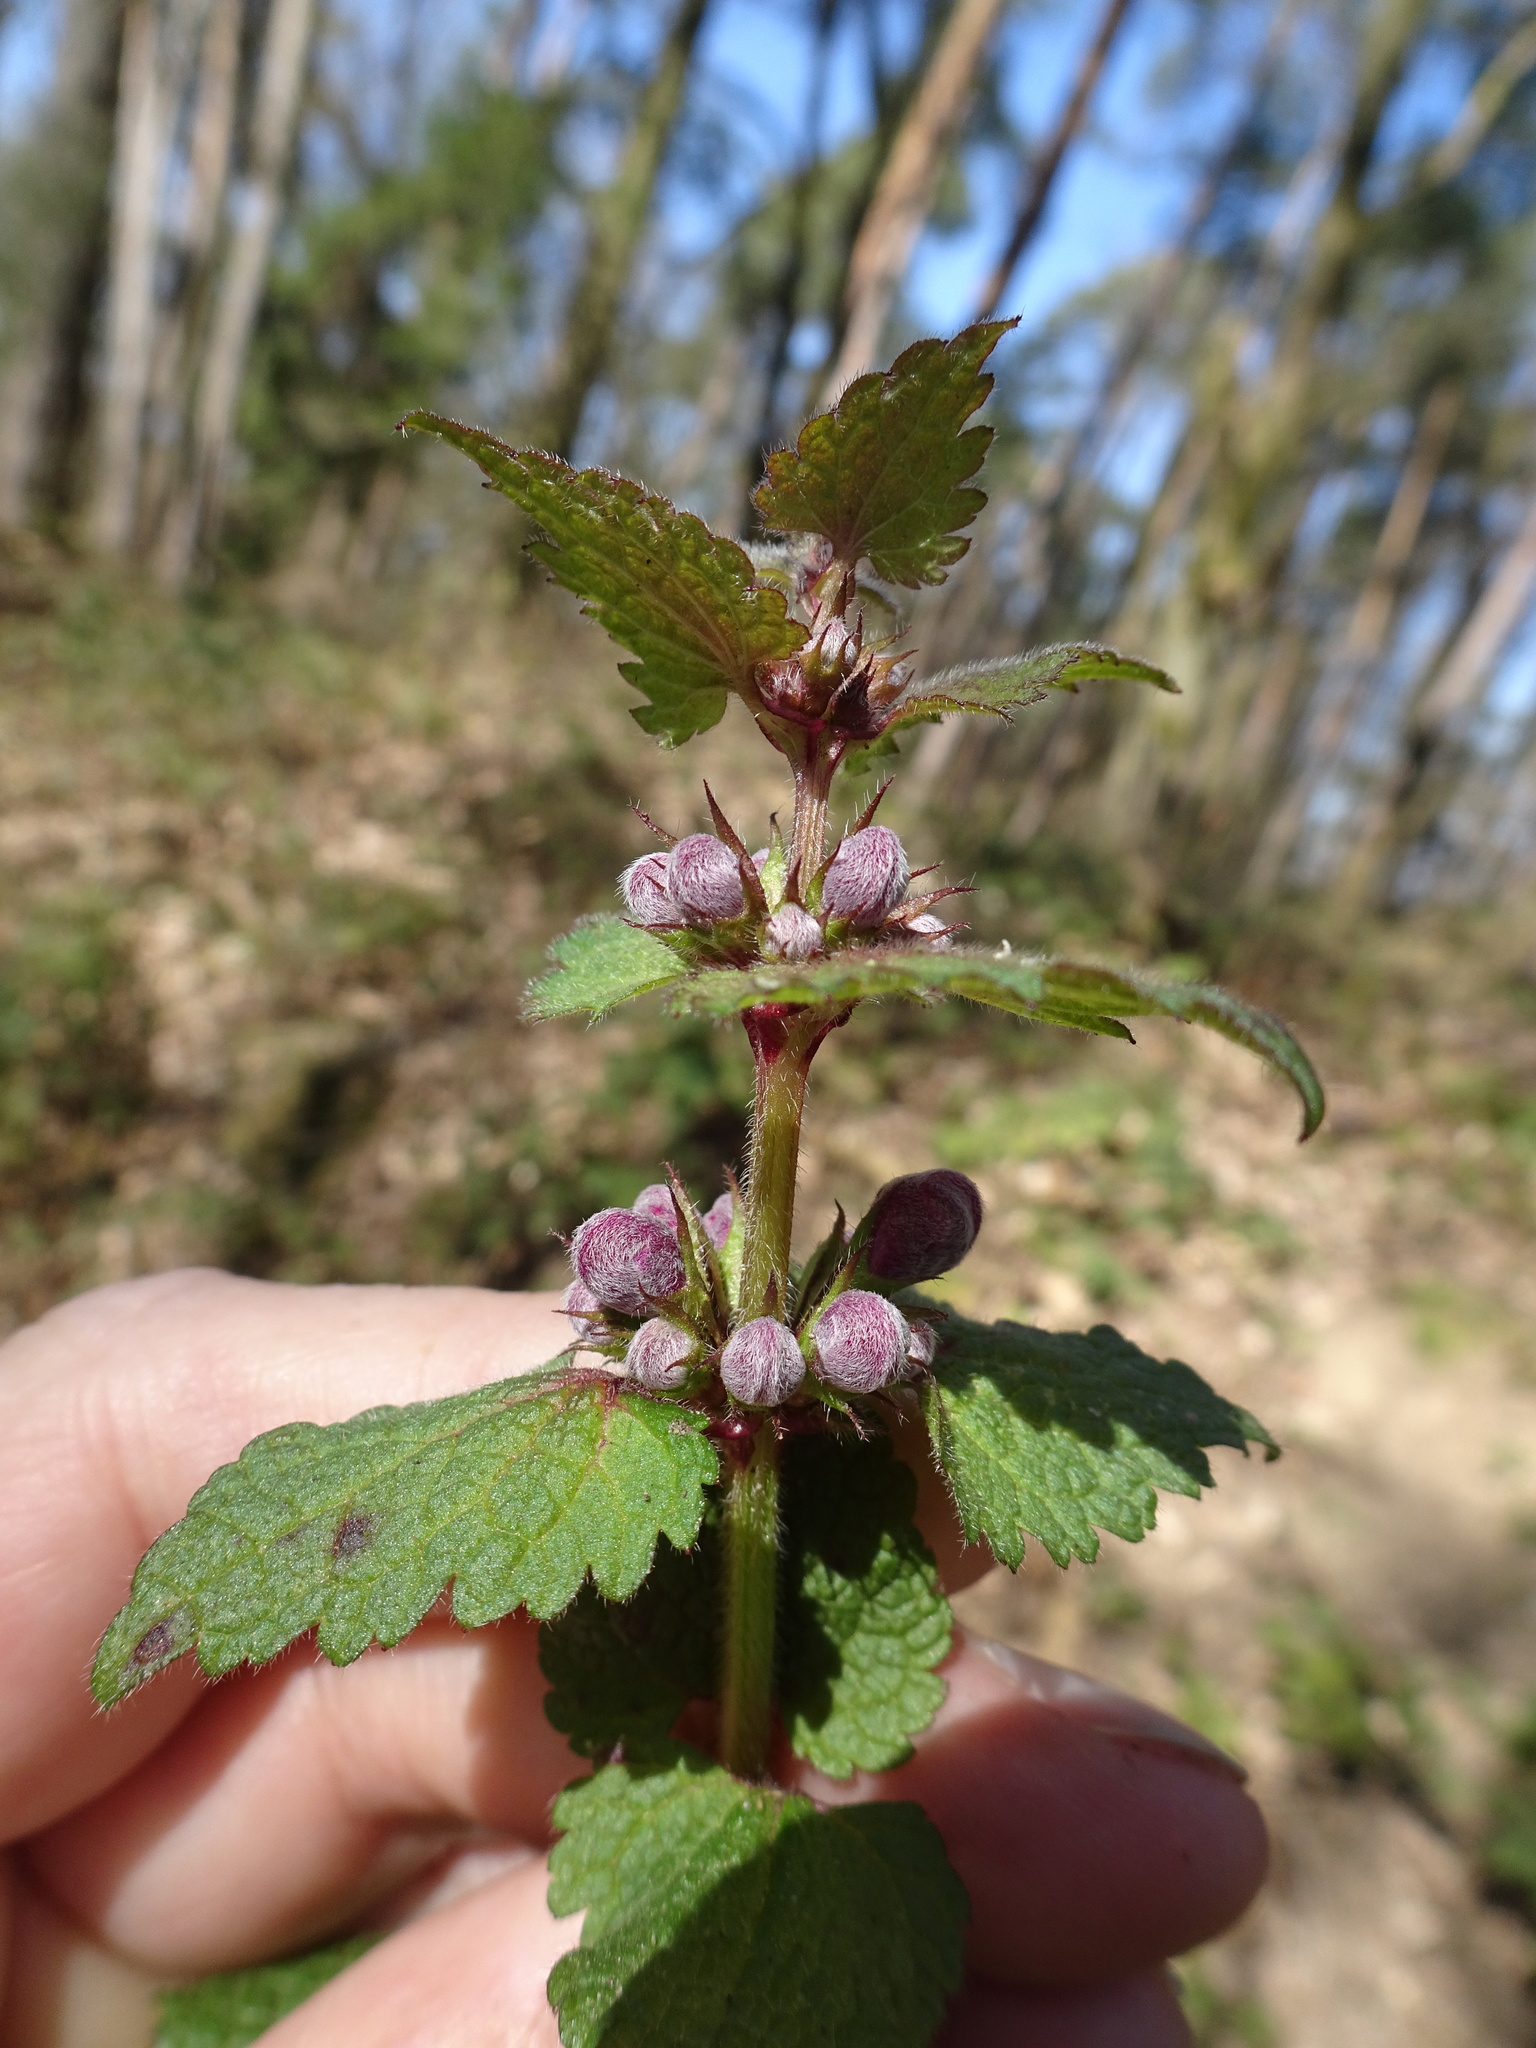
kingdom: Plantae
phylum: Tracheophyta
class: Magnoliopsida
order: Lamiales
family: Lamiaceae
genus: Lamium
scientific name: Lamium maculatum
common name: Spotted dead-nettle
